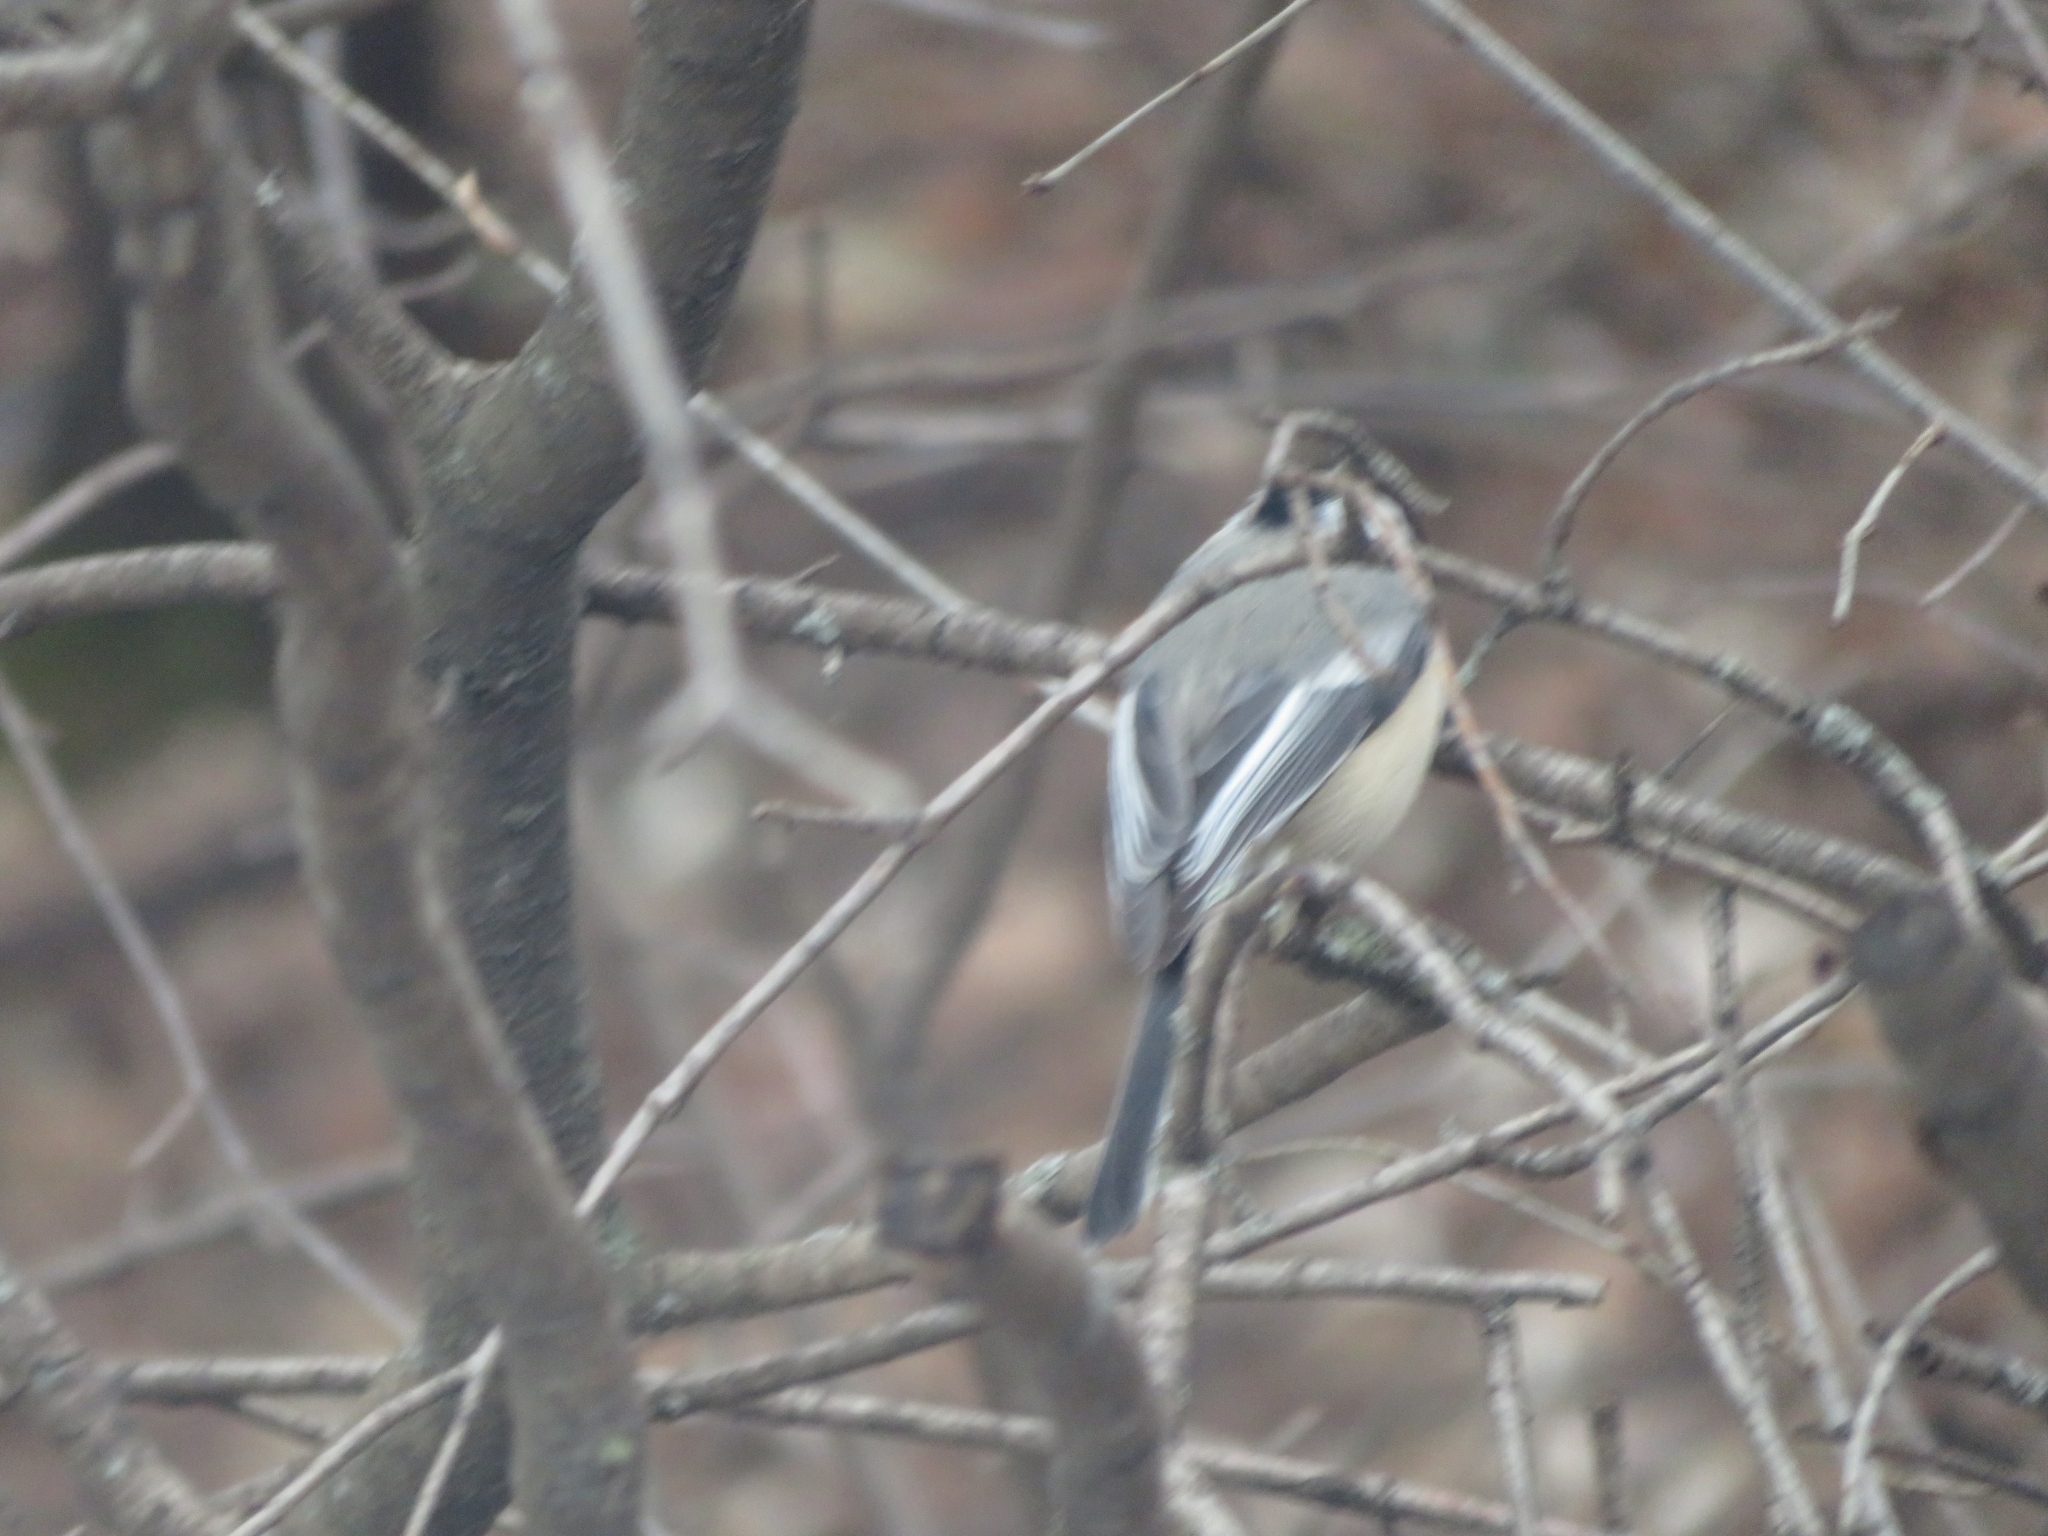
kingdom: Animalia
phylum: Chordata
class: Aves
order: Passeriformes
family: Paridae
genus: Poecile
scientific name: Poecile atricapillus
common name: Black-capped chickadee
